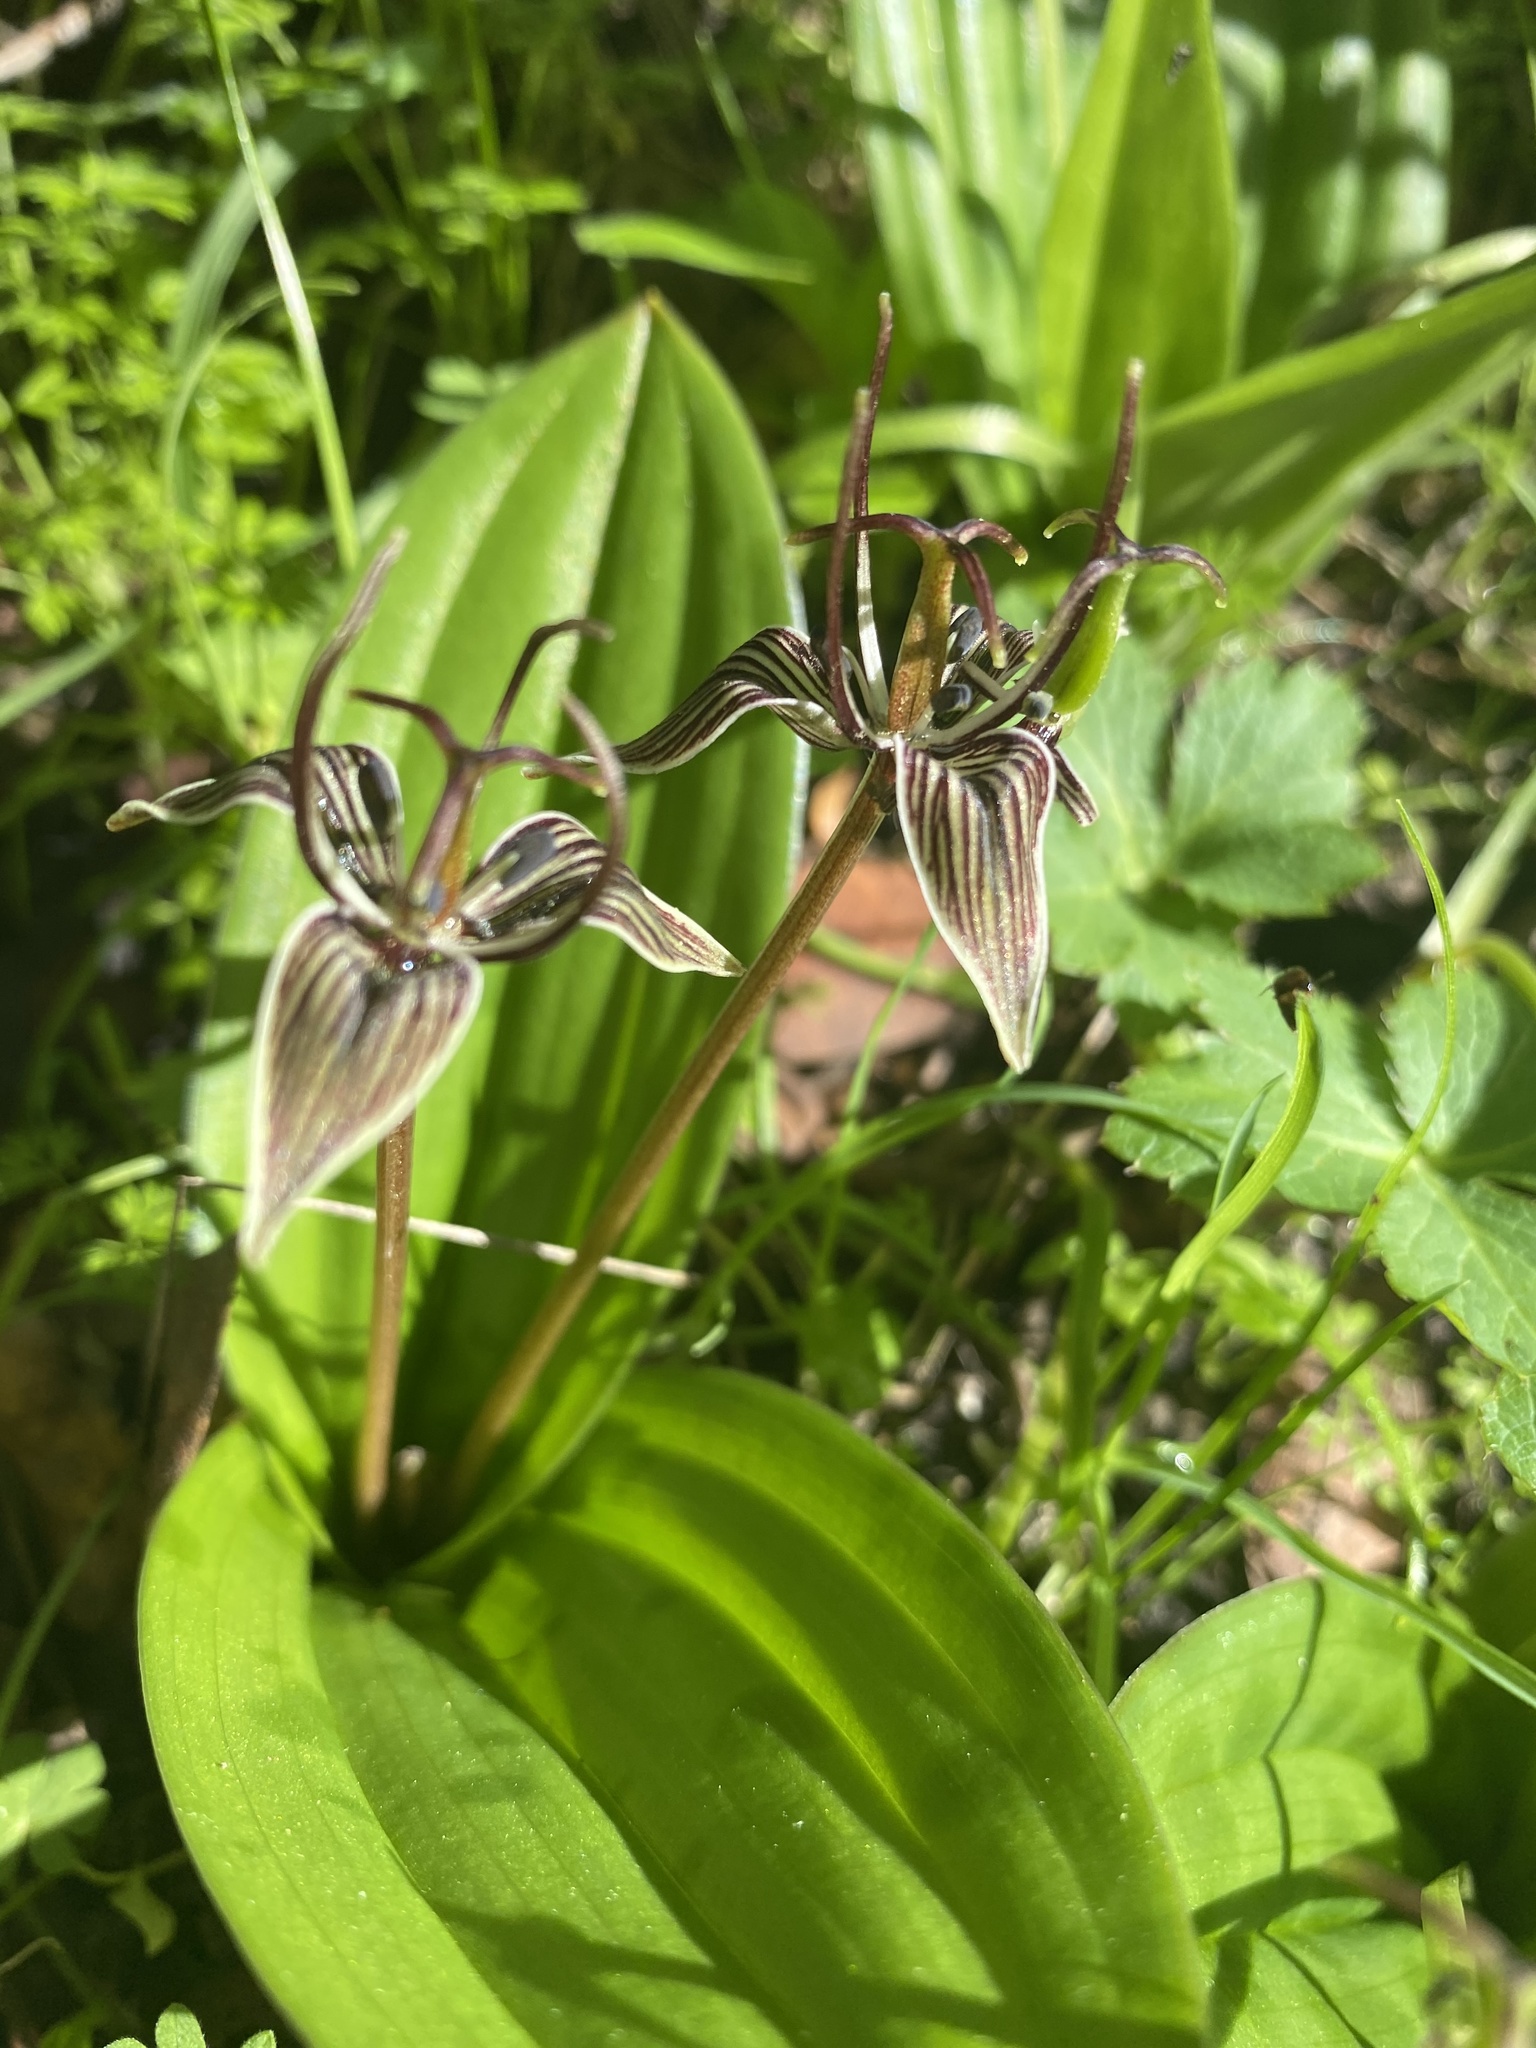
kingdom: Plantae
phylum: Tracheophyta
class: Liliopsida
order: Liliales
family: Liliaceae
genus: Scoliopus
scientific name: Scoliopus bigelovii
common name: Foetid adder's-tongue
